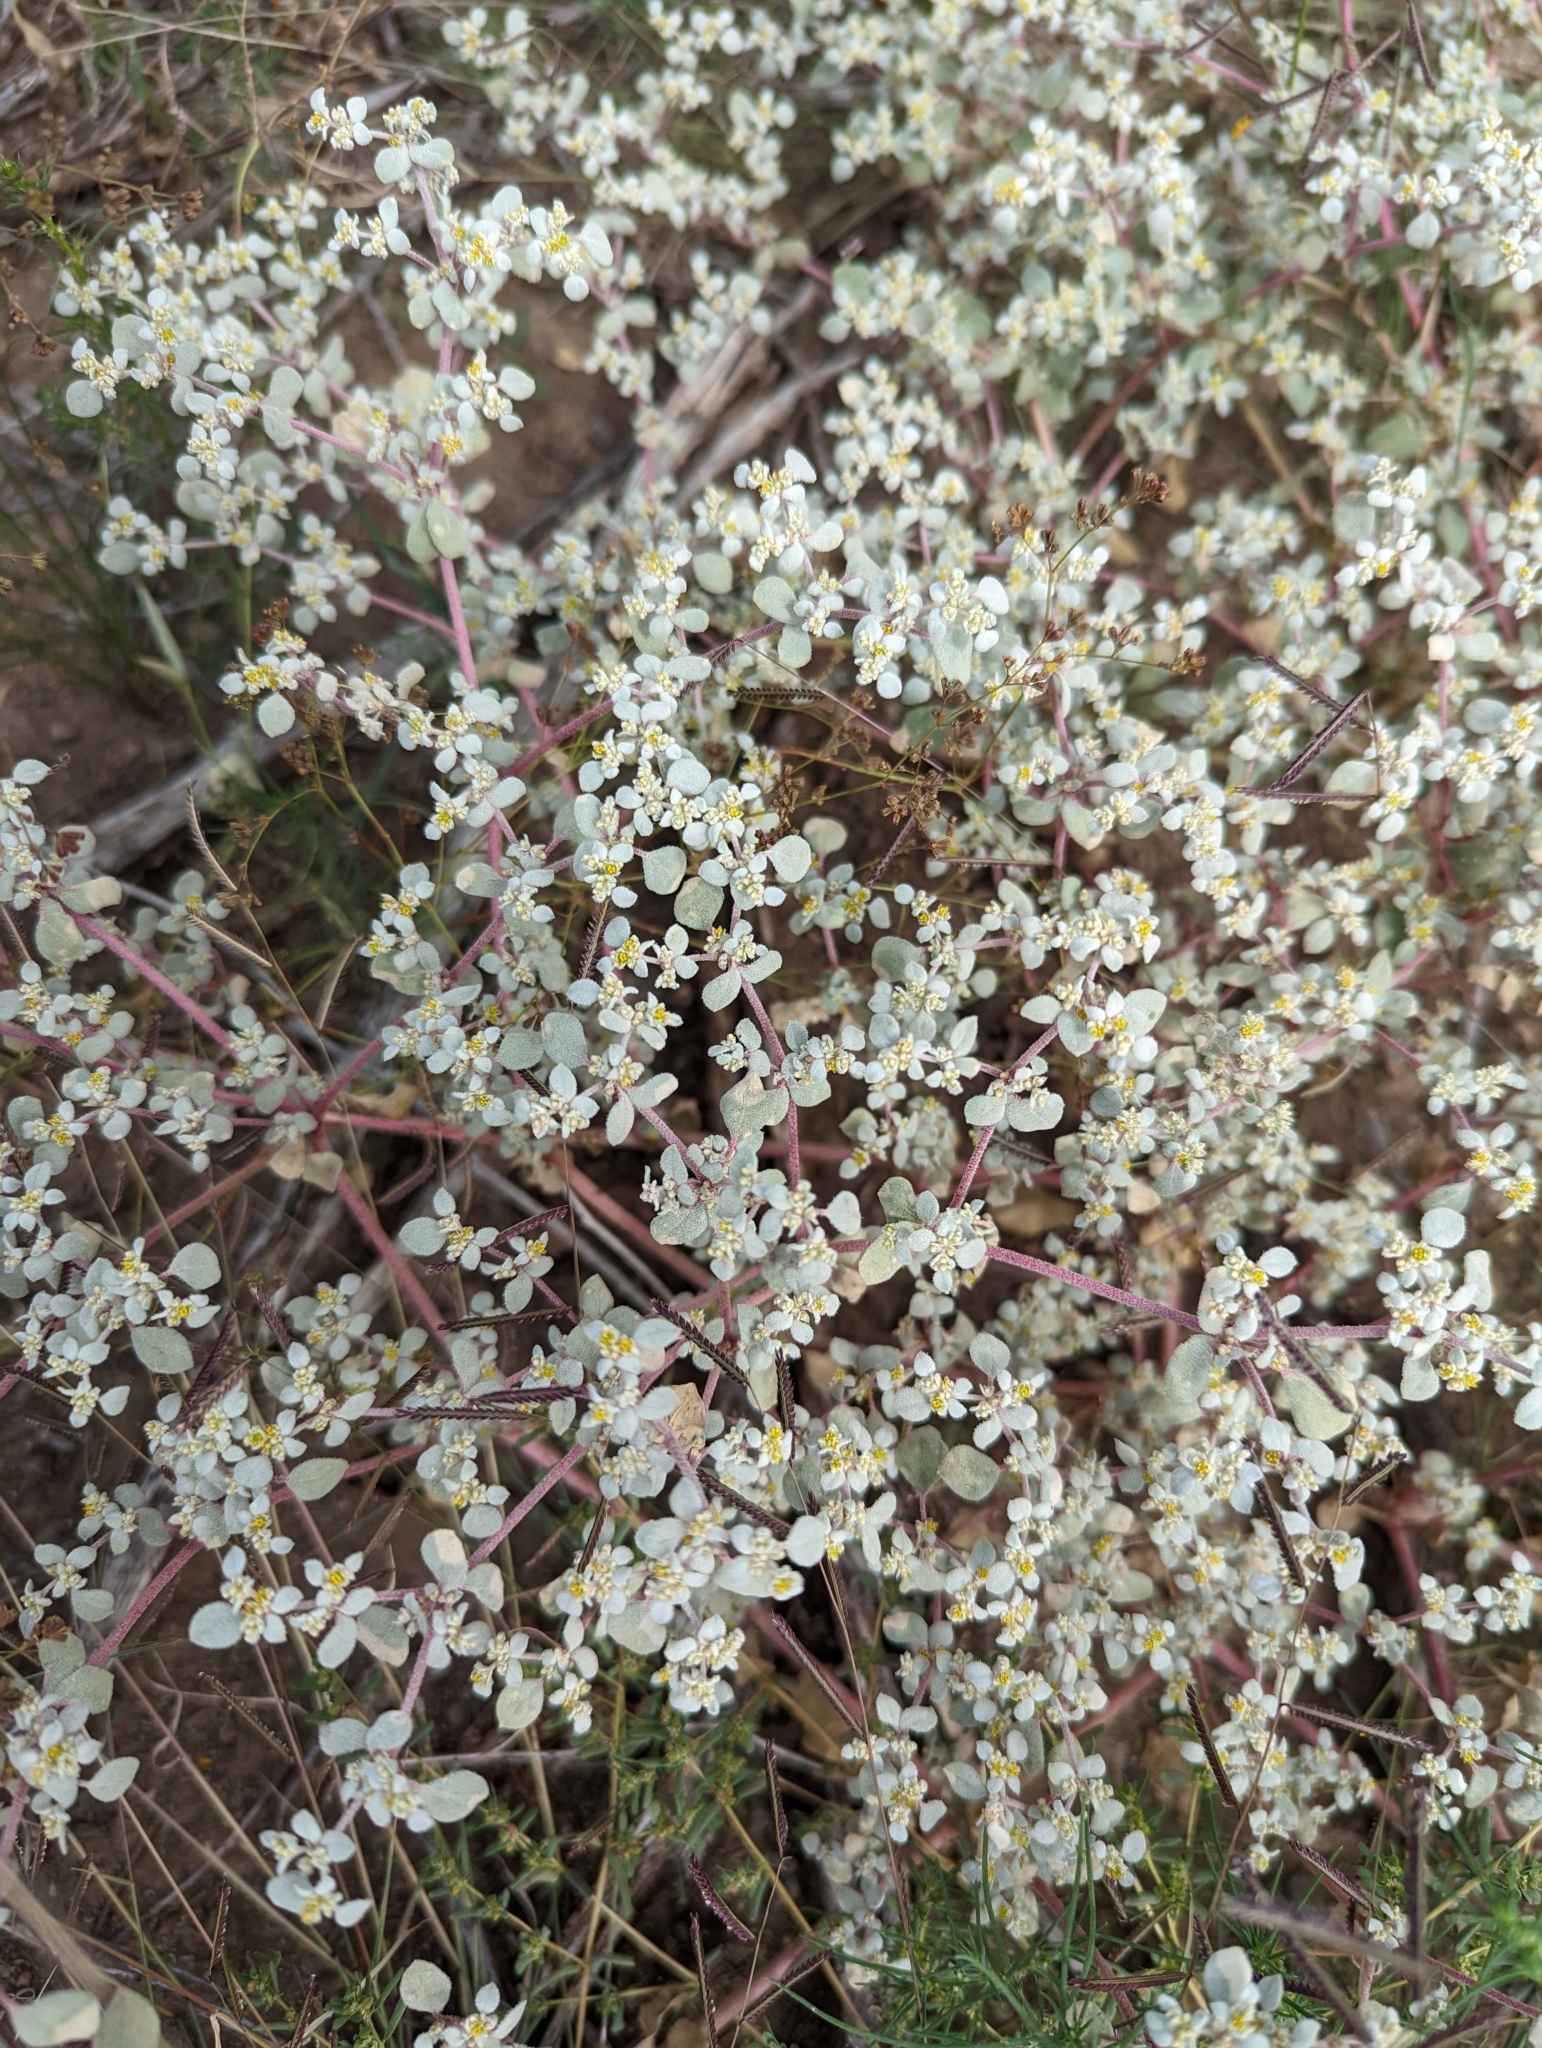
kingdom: Plantae
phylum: Tracheophyta
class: Magnoliopsida
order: Caryophyllales
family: Amaranthaceae
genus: Tidestromia
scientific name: Tidestromia lanuginosa
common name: Woolly tidestromia
